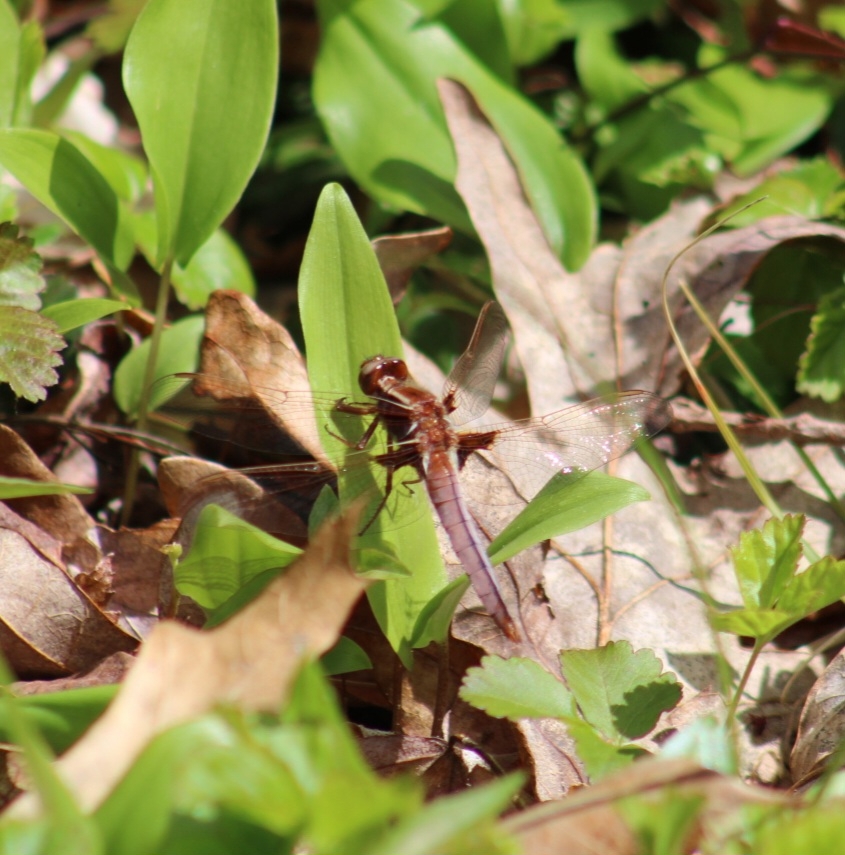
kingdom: Animalia
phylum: Arthropoda
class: Insecta
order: Odonata
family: Libellulidae
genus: Ladona
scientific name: Ladona exusta
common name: Libellule embrasée
